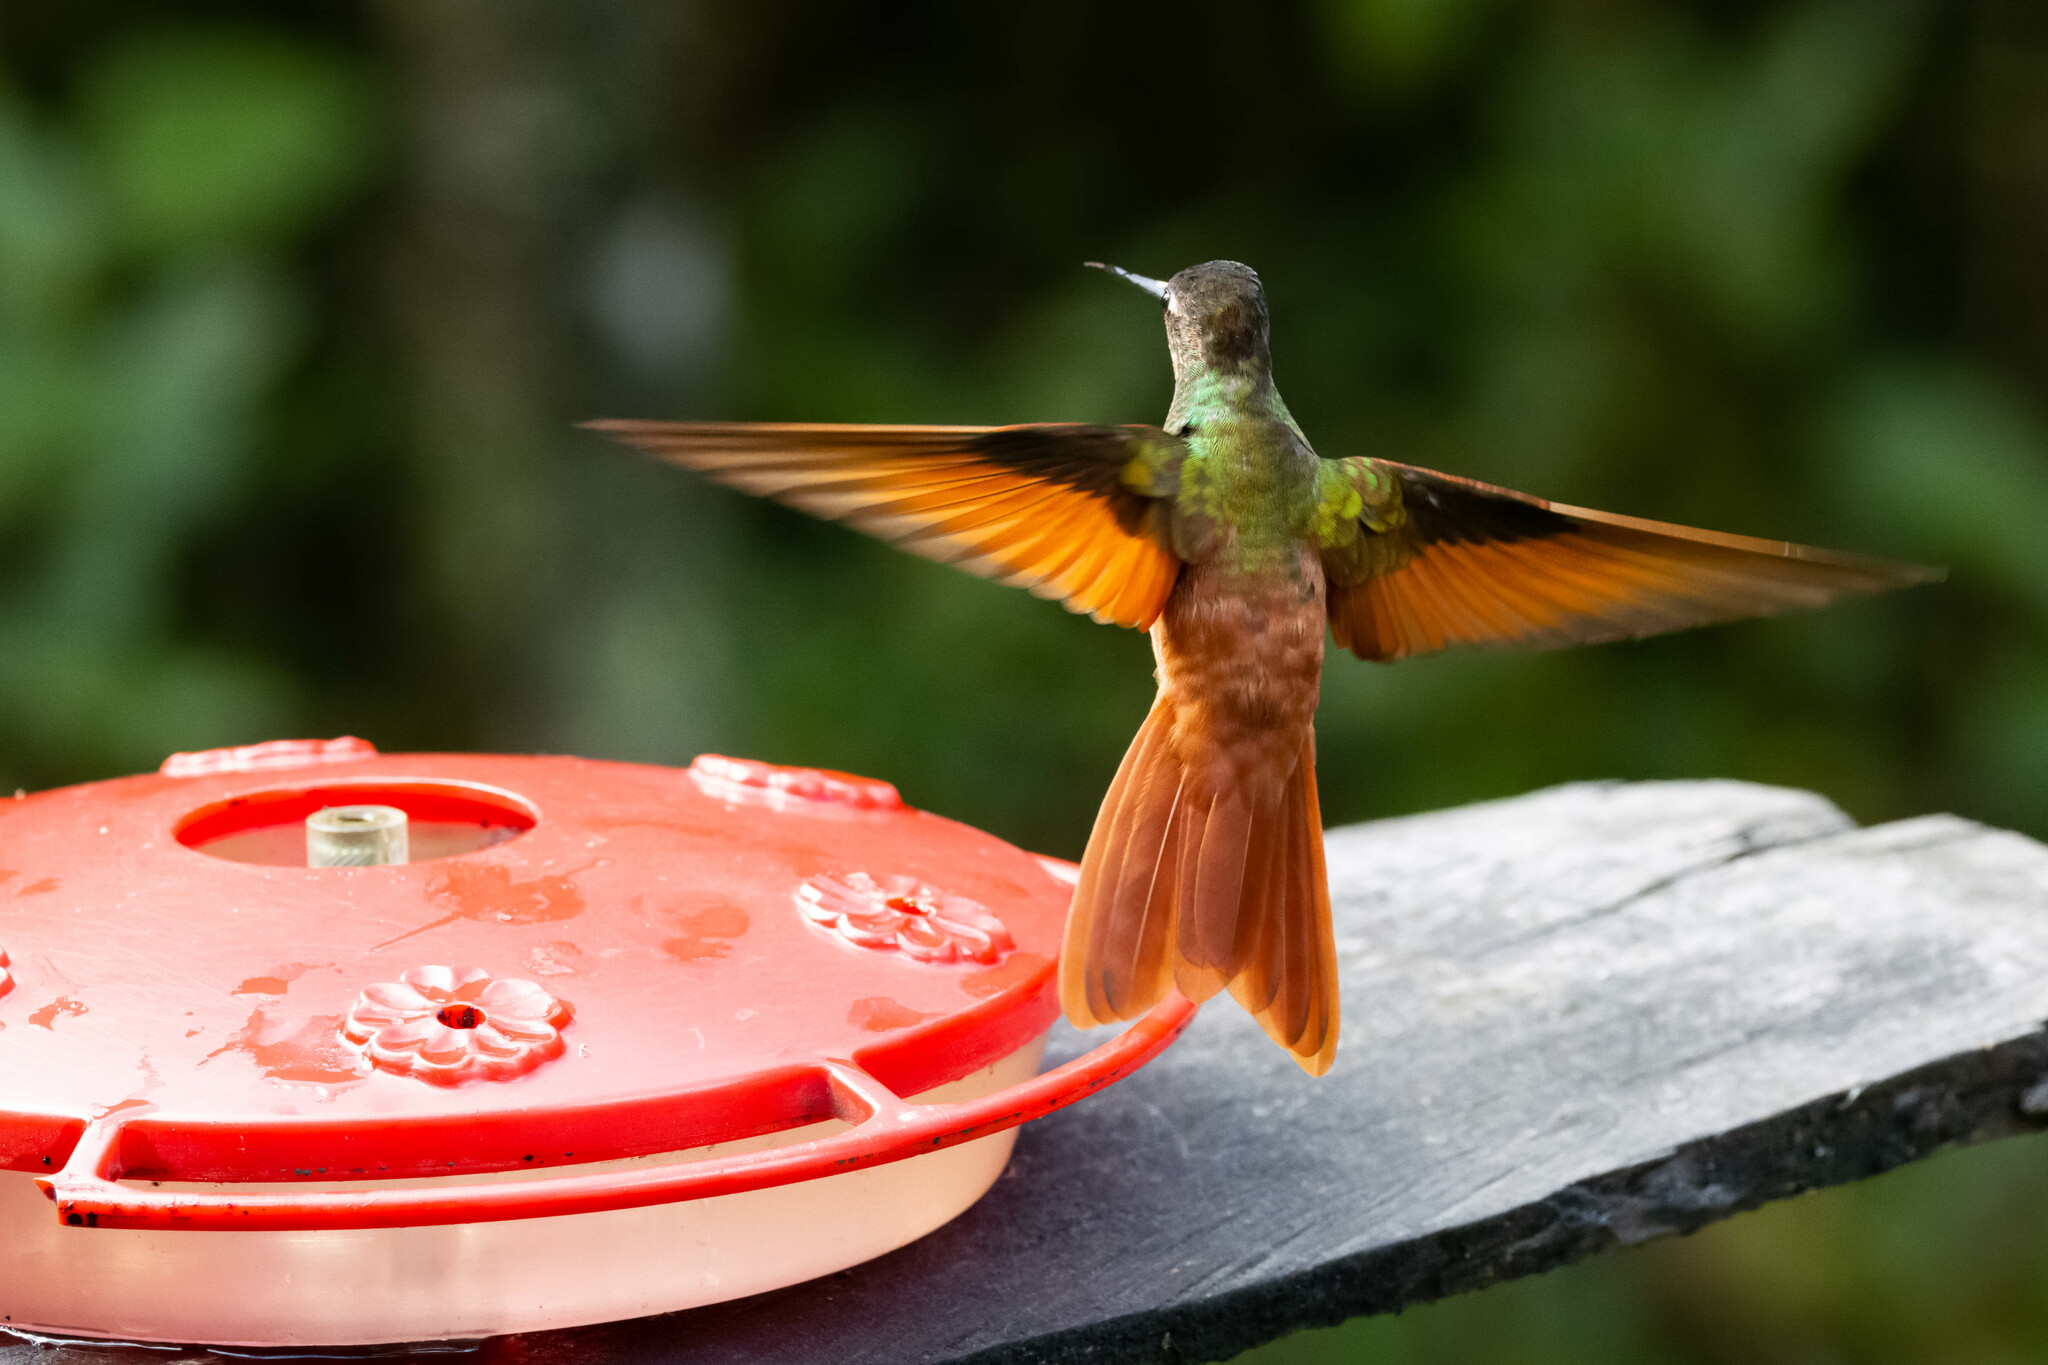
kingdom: Animalia
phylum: Chordata
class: Aves
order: Apodiformes
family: Trochilidae
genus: Coeligena
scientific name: Coeligena iris
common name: Rainbow starfrontlet
